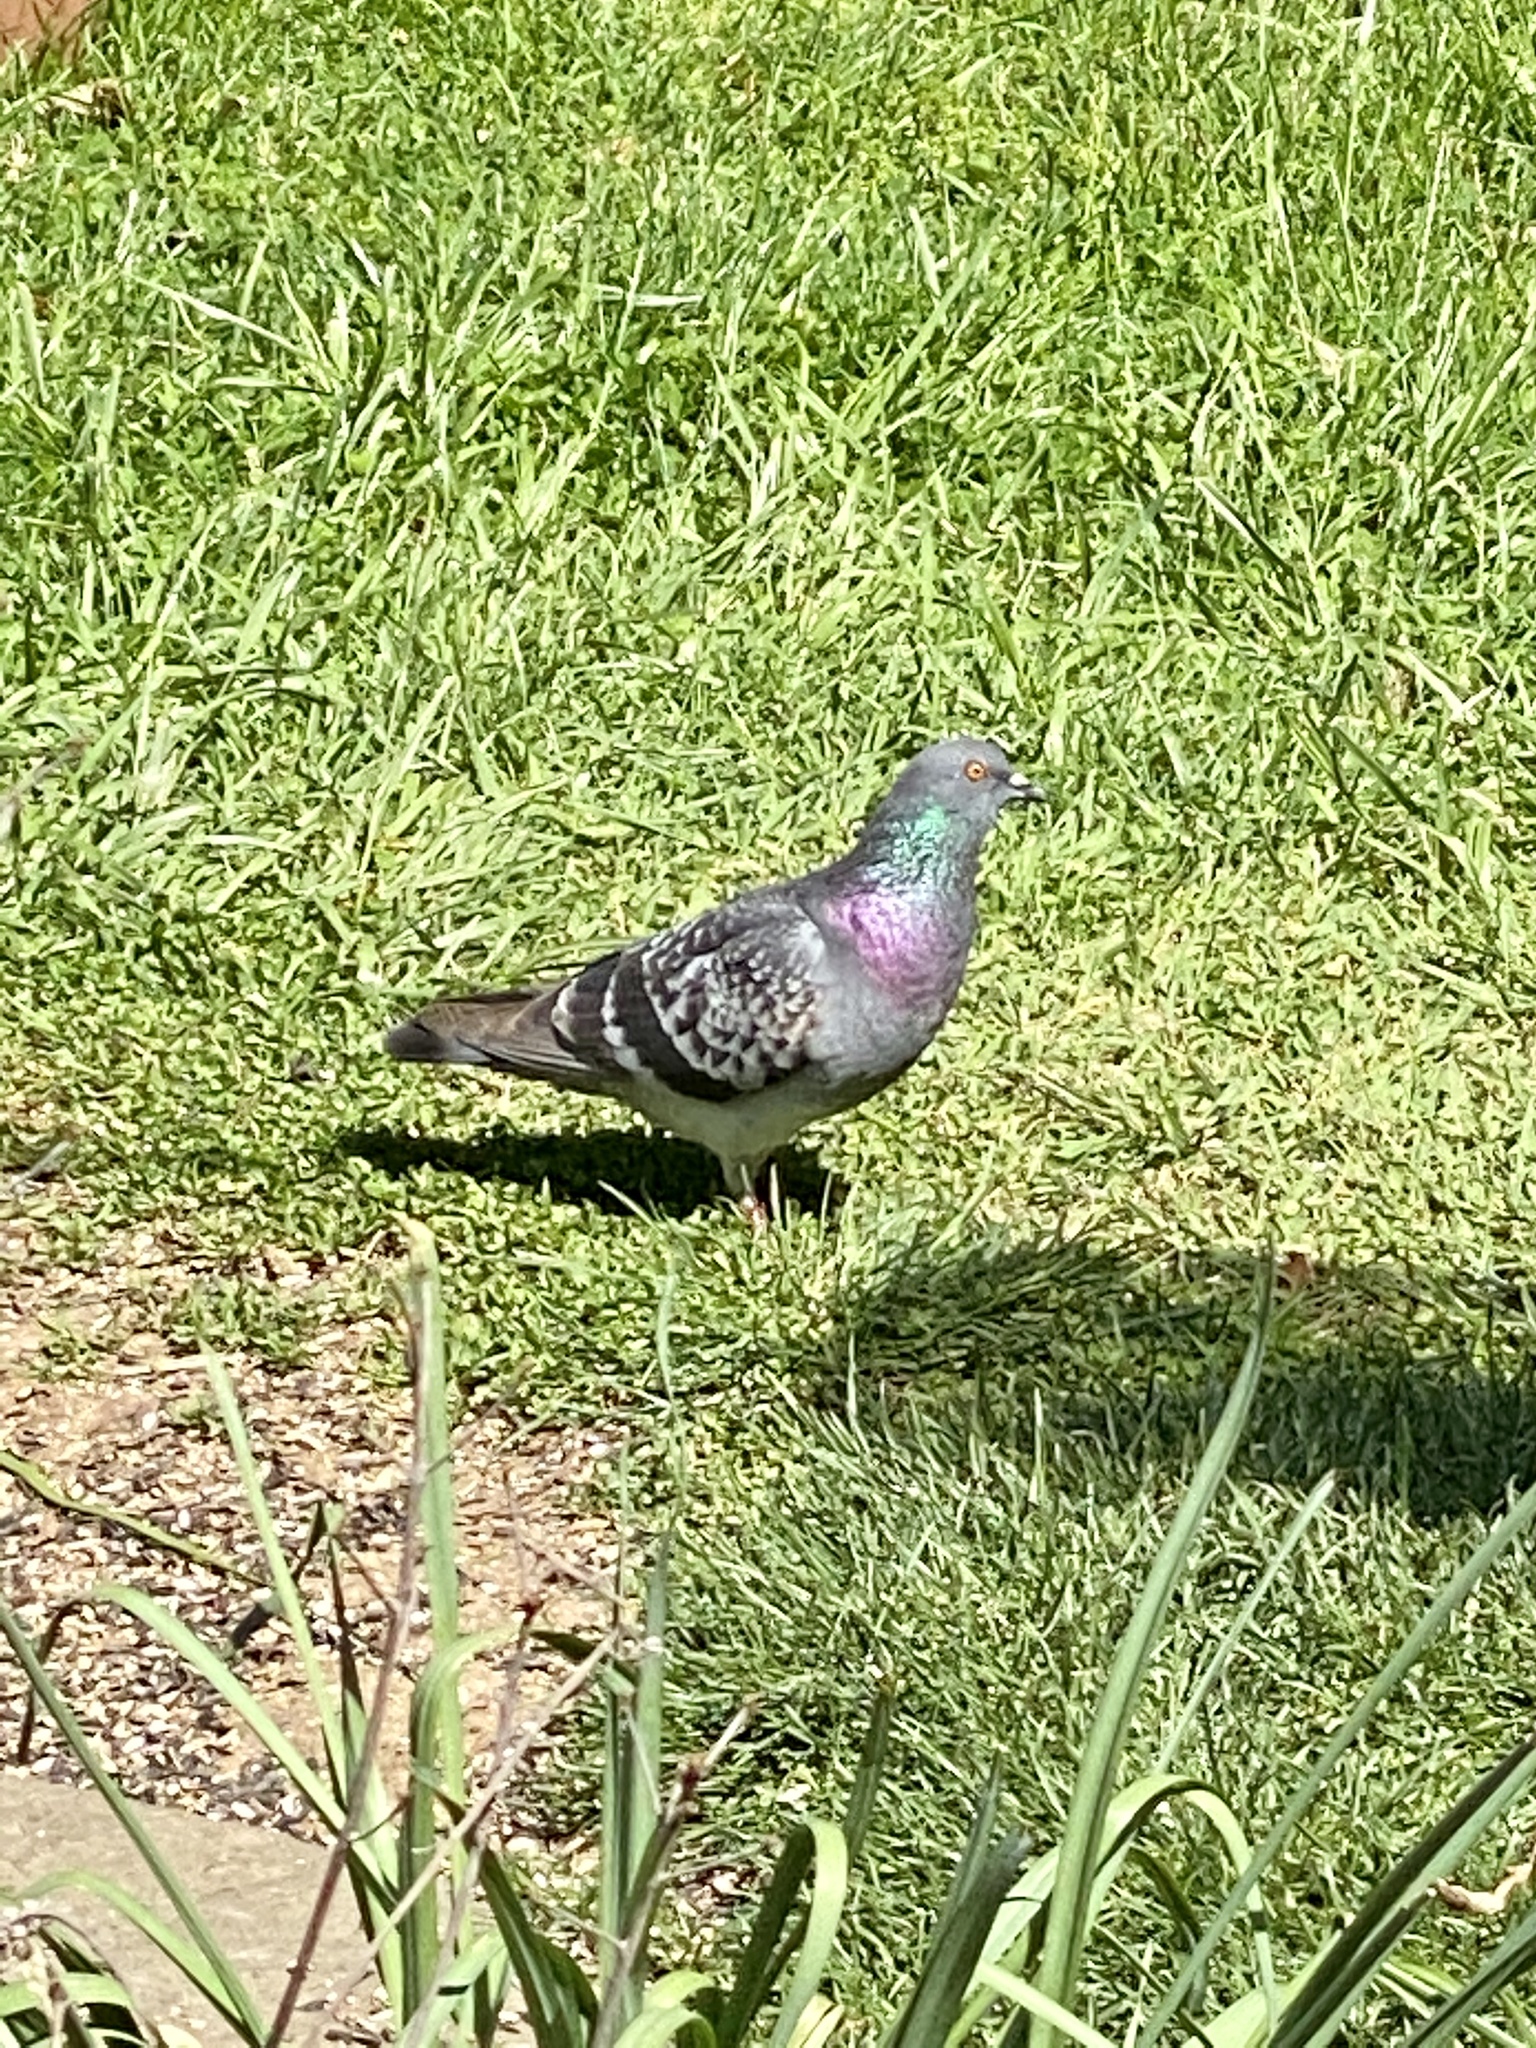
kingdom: Animalia
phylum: Chordata
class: Aves
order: Columbiformes
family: Columbidae
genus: Columba
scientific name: Columba livia
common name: Rock pigeon
